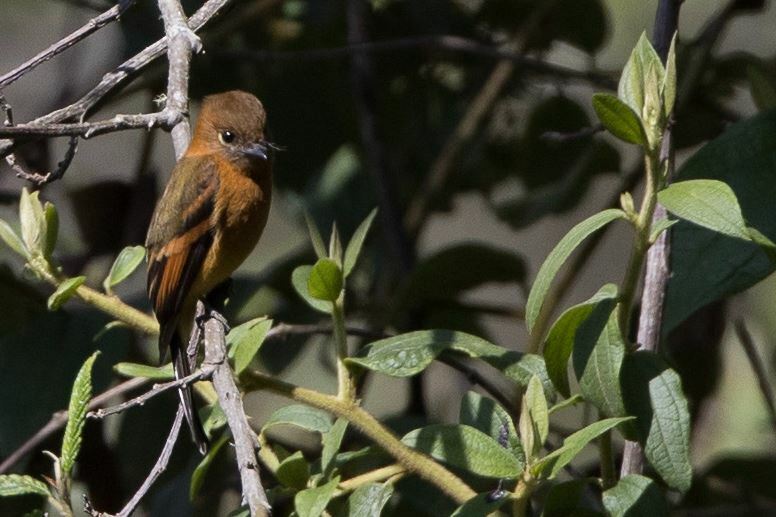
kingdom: Animalia
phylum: Chordata
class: Aves
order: Passeriformes
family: Tyrannidae
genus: Pyrrhomyias
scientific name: Pyrrhomyias cinnamomeus
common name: Cinnamon flycatcher
